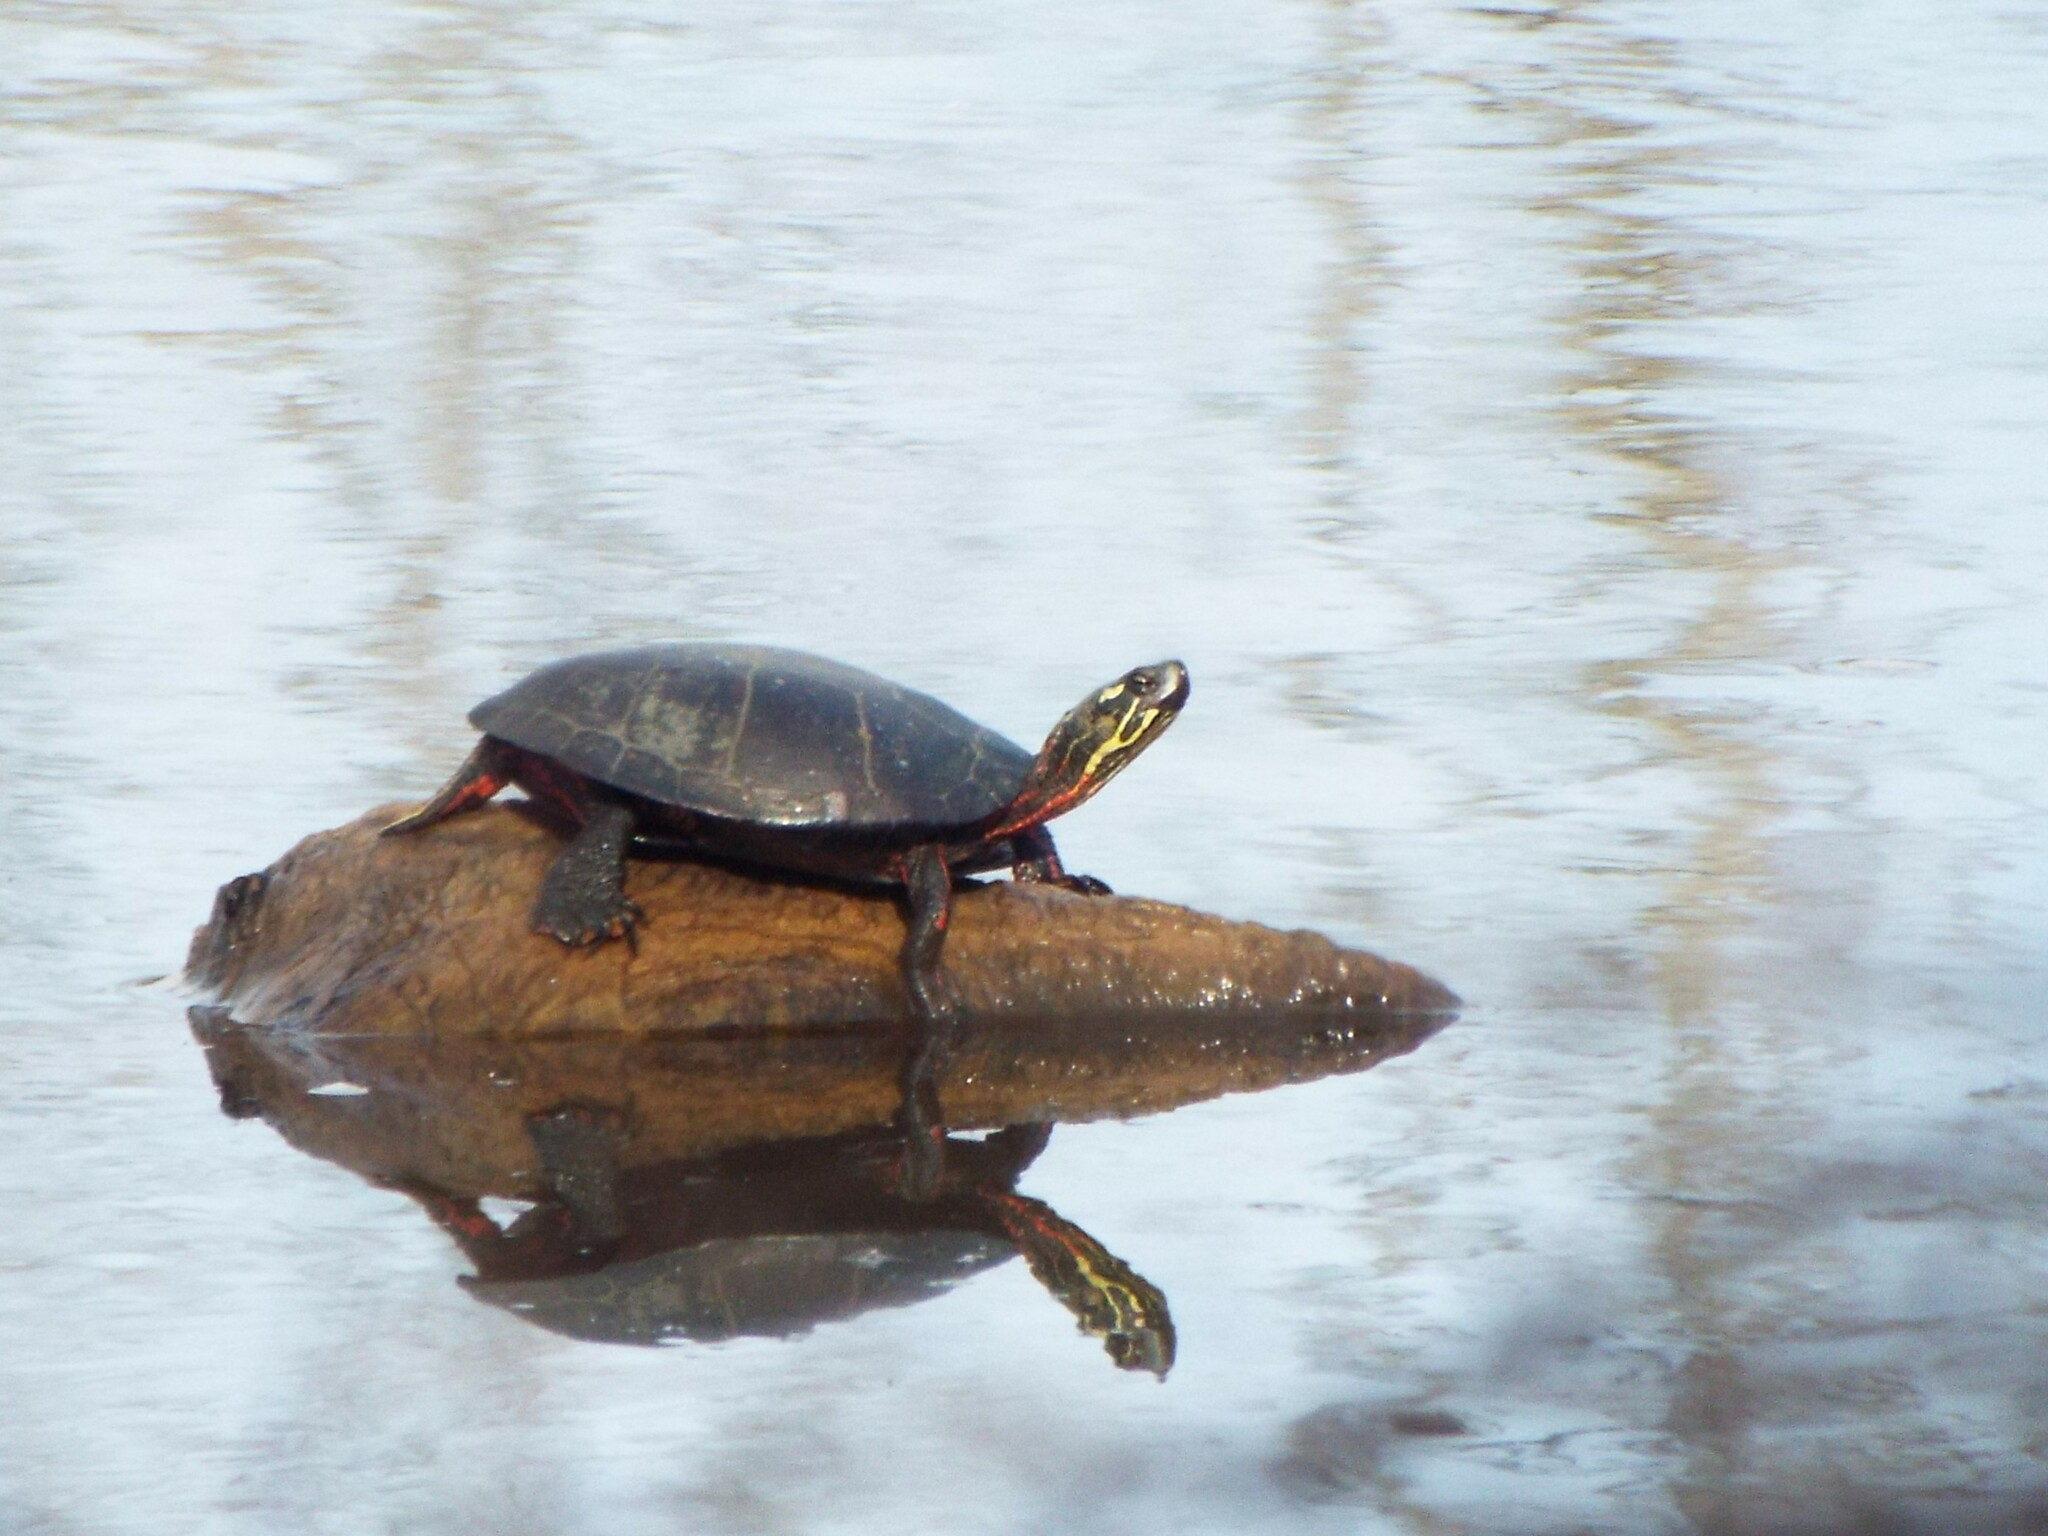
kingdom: Animalia
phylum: Chordata
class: Testudines
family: Emydidae
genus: Chrysemys
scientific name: Chrysemys picta
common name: Painted turtle
